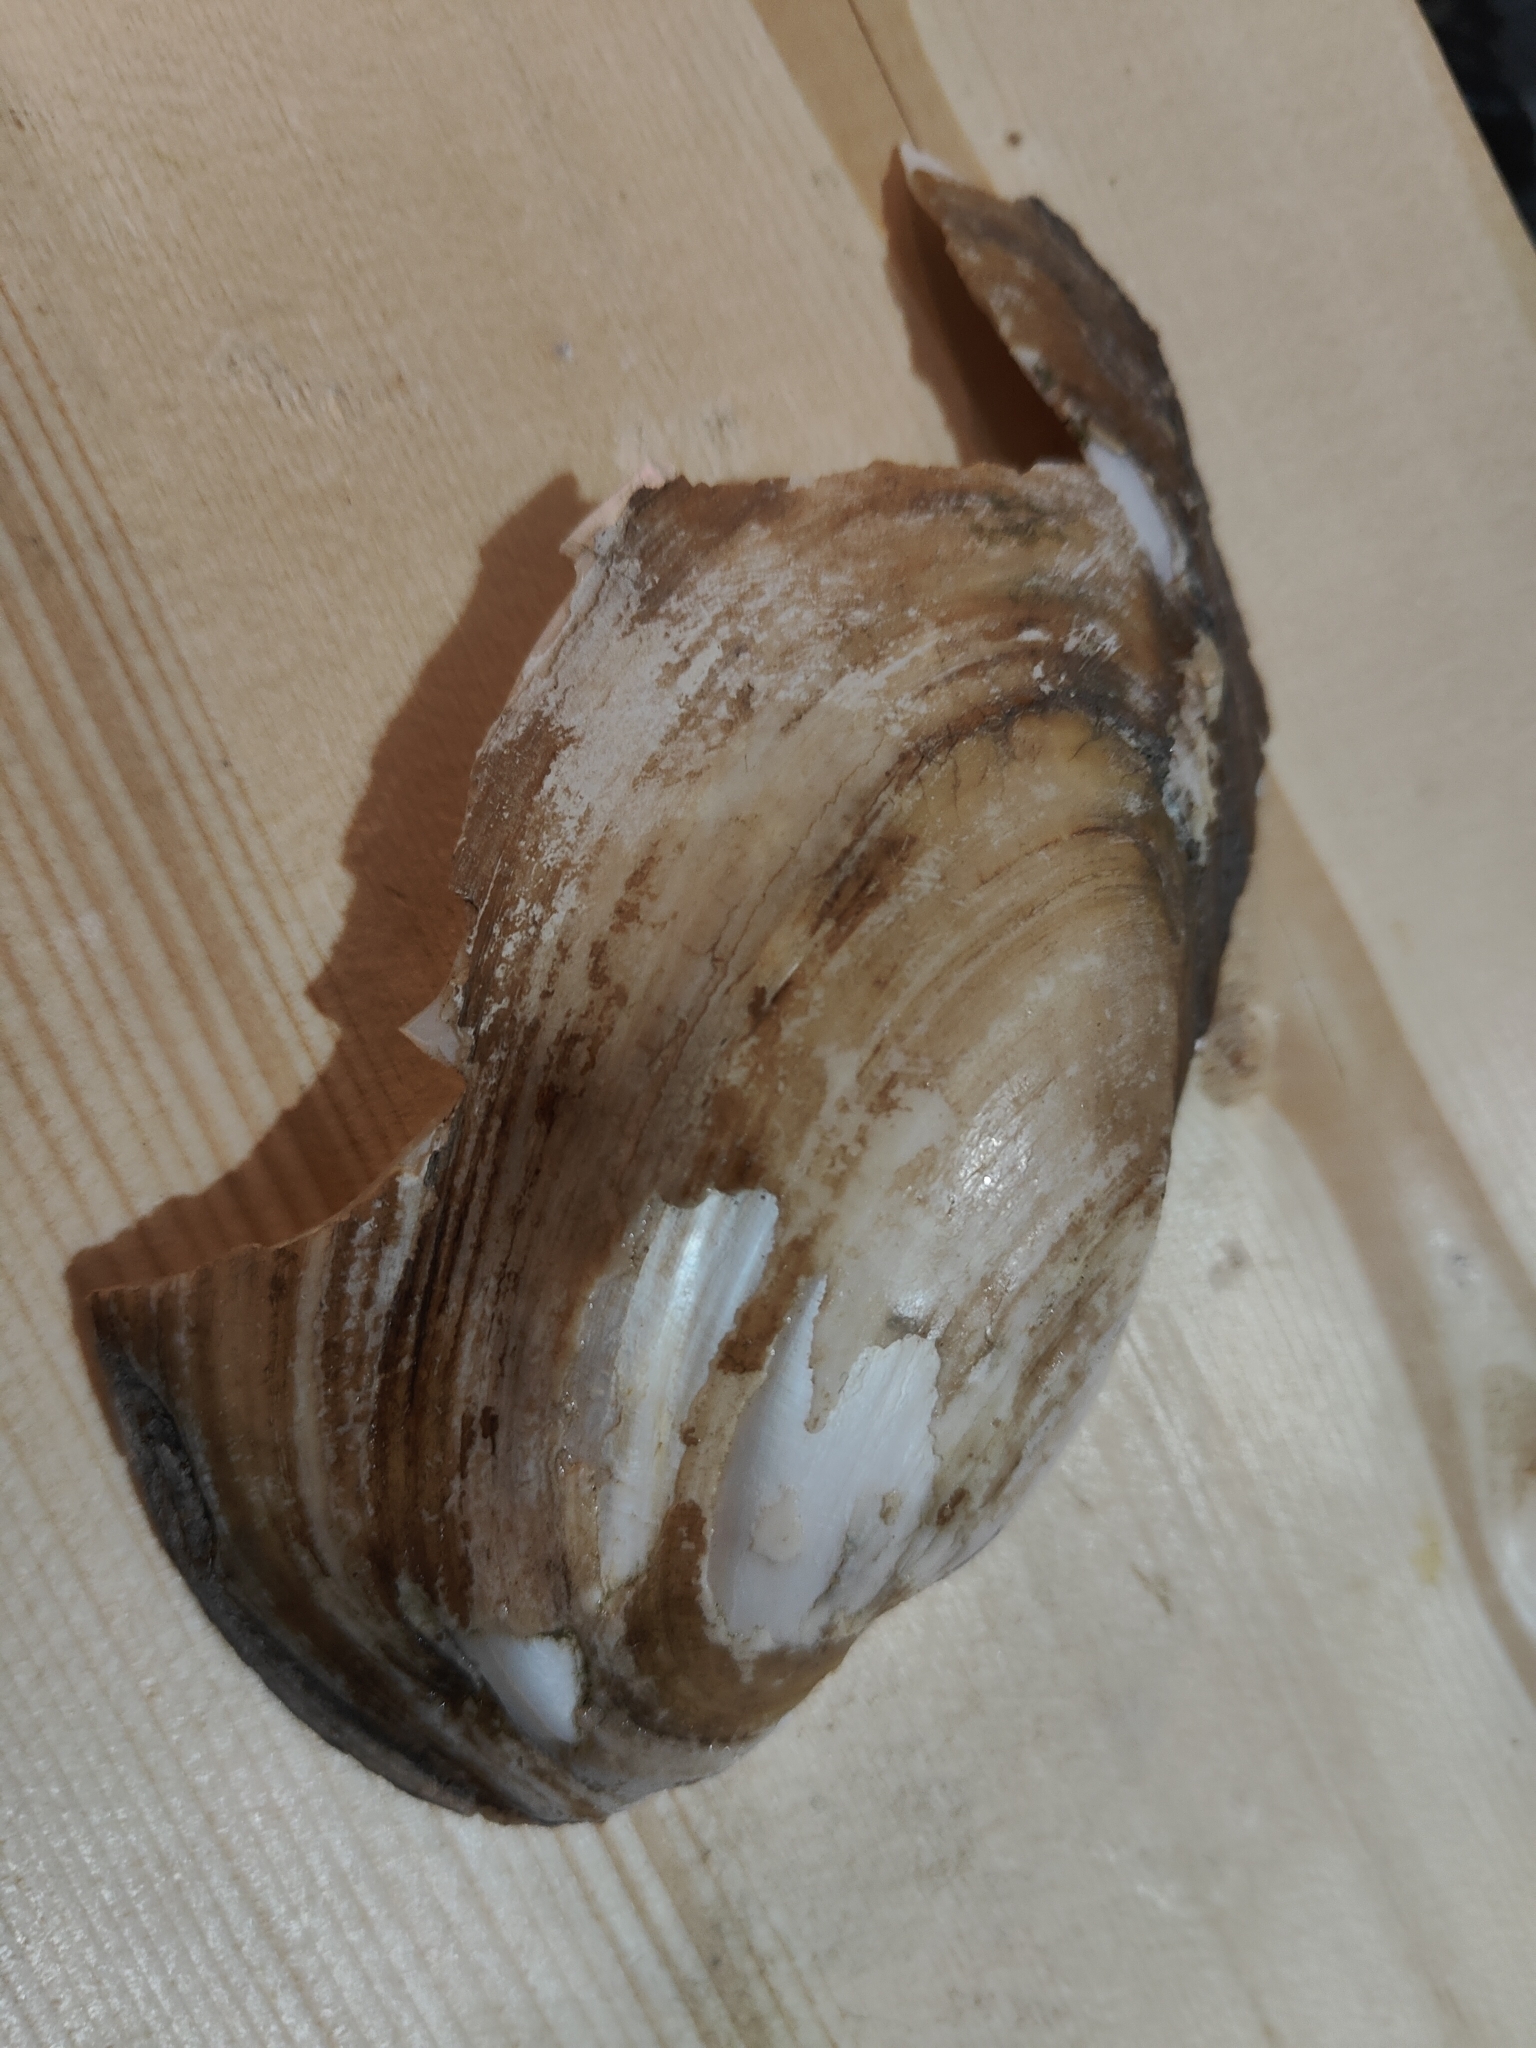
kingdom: Animalia
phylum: Mollusca
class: Bivalvia
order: Unionida
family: Unionidae
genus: Potamilus
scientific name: Potamilus fragilis
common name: Fragile papershell
